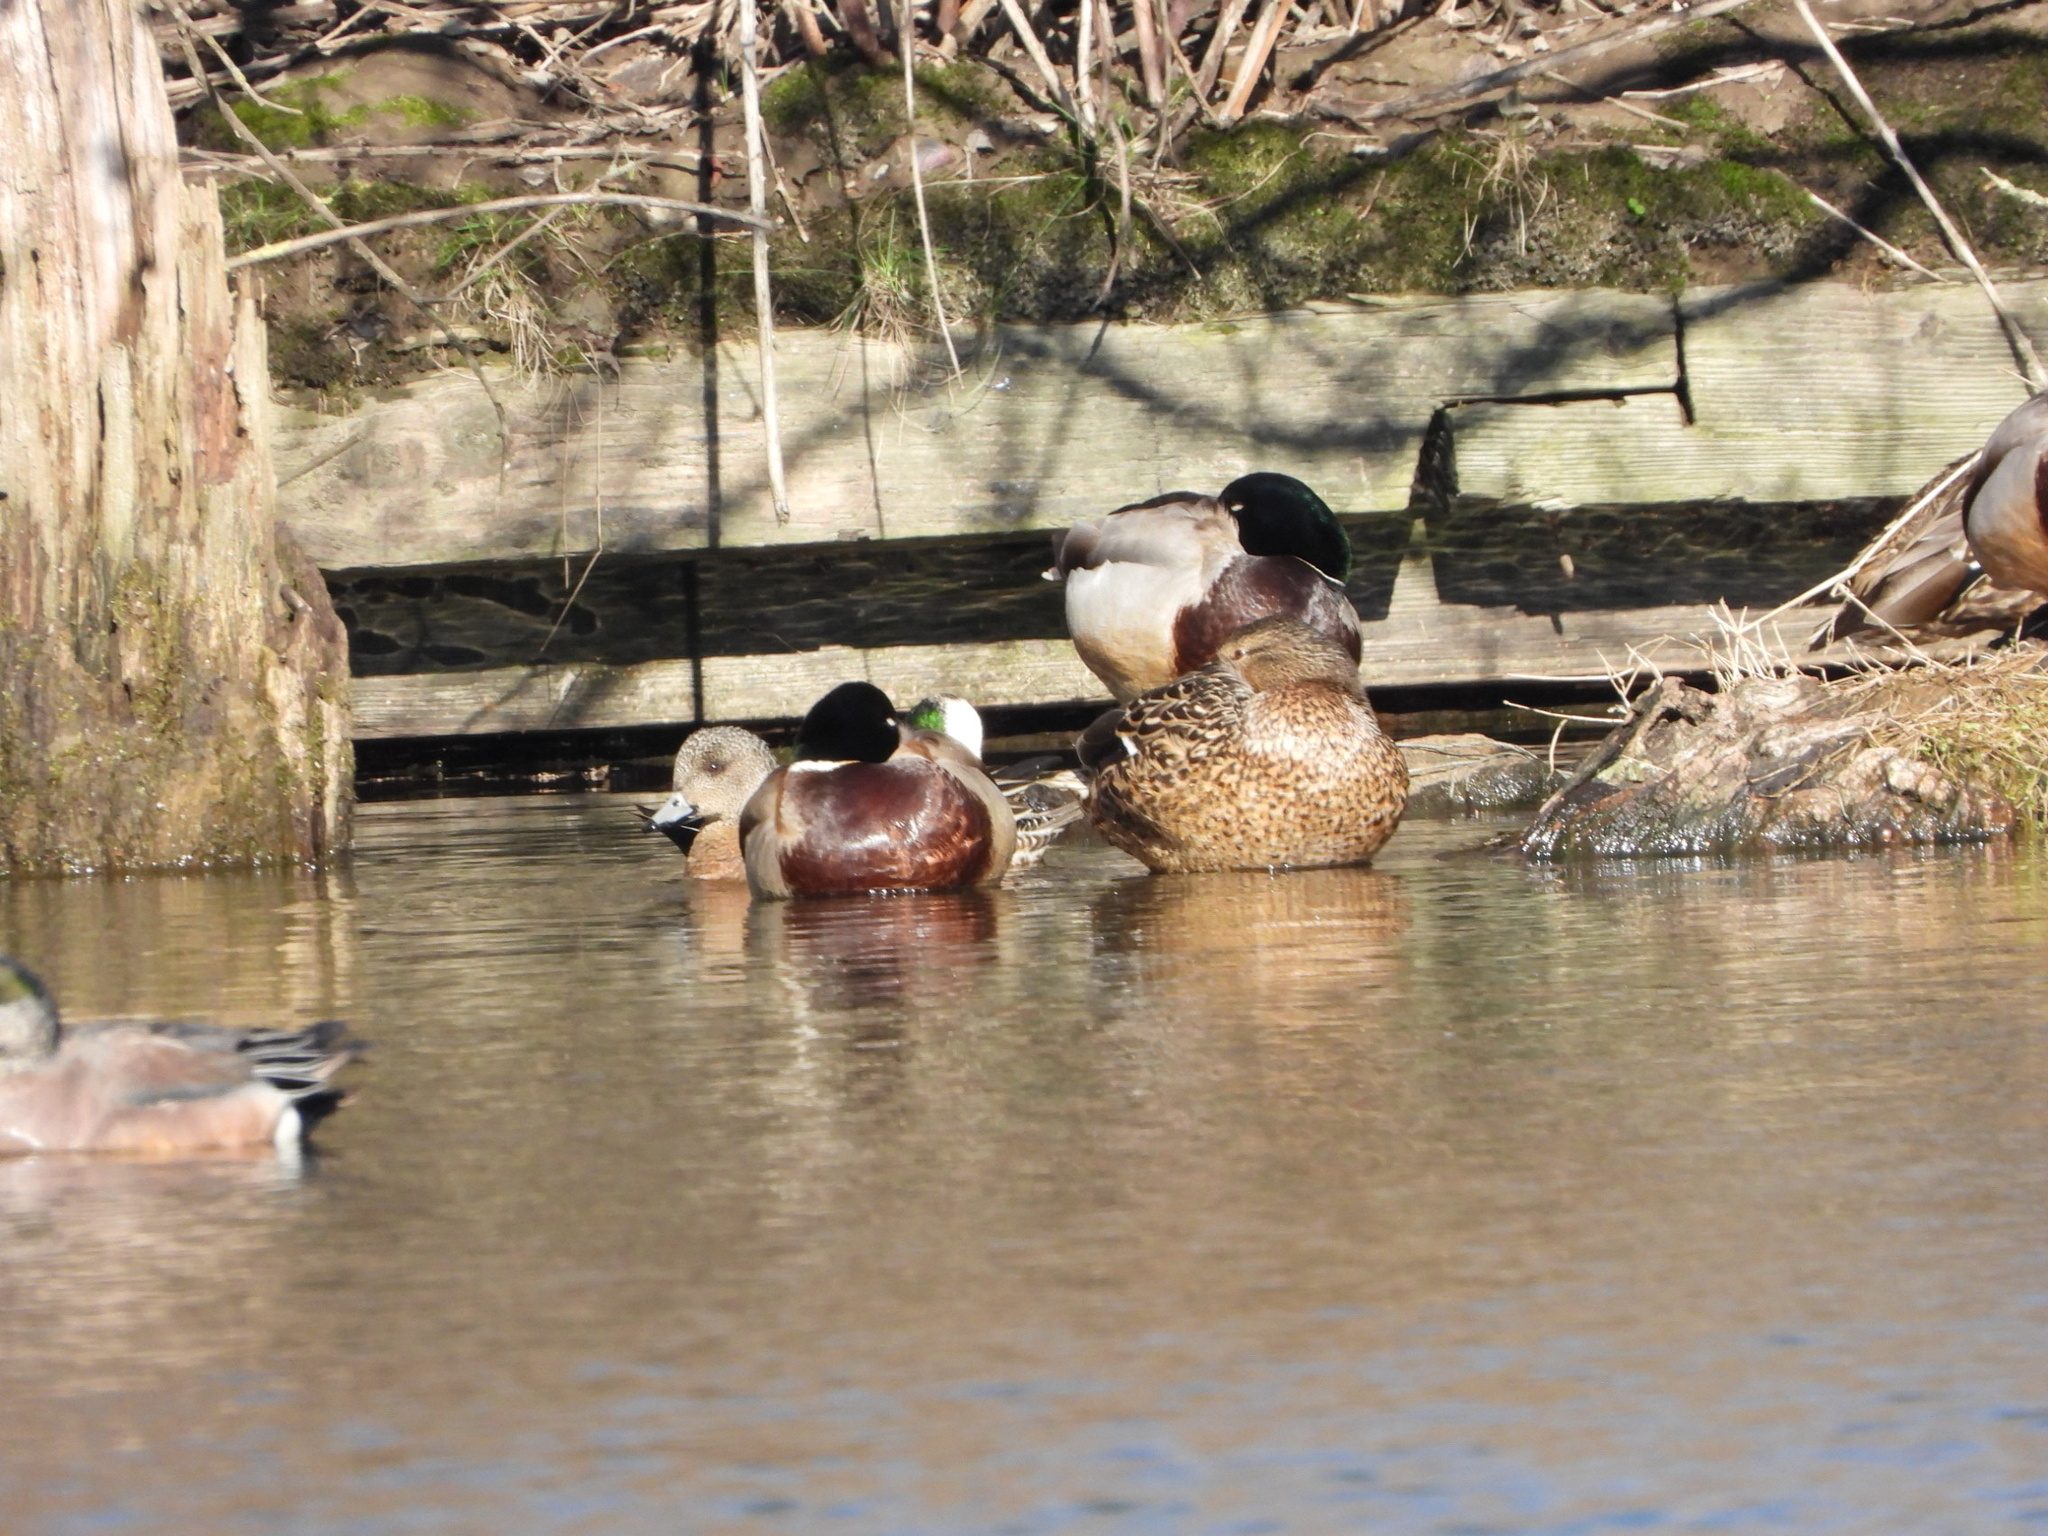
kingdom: Animalia
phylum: Chordata
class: Aves
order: Anseriformes
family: Anatidae
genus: Anas
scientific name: Anas platyrhynchos
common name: Mallard
